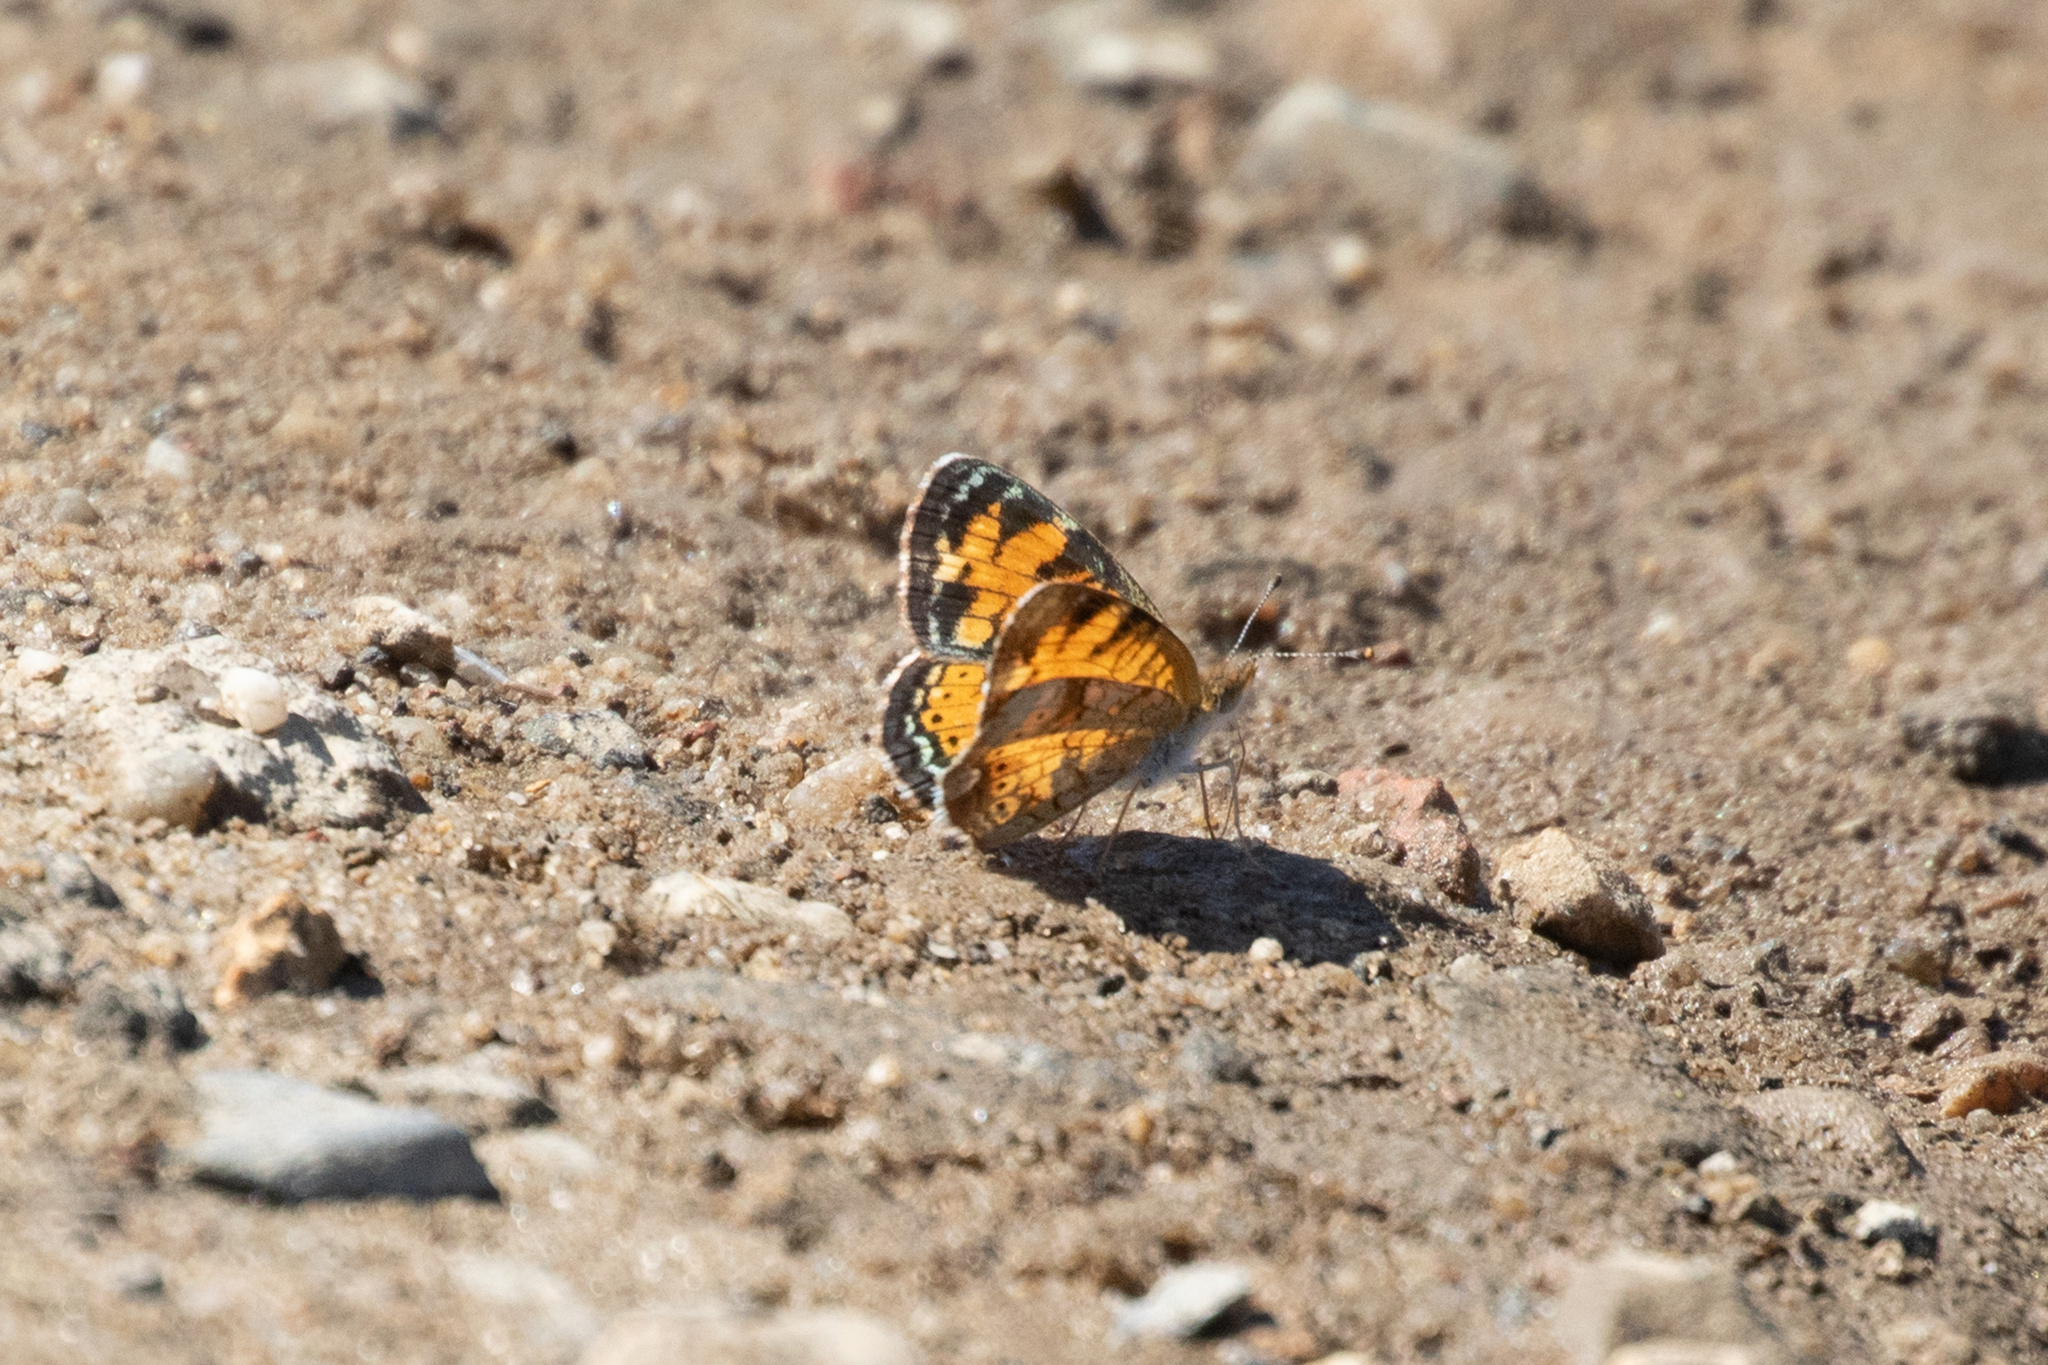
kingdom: Animalia
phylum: Arthropoda
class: Insecta
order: Lepidoptera
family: Nymphalidae
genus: Phyciodes
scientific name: Phyciodes tharos
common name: Pearl crescent
